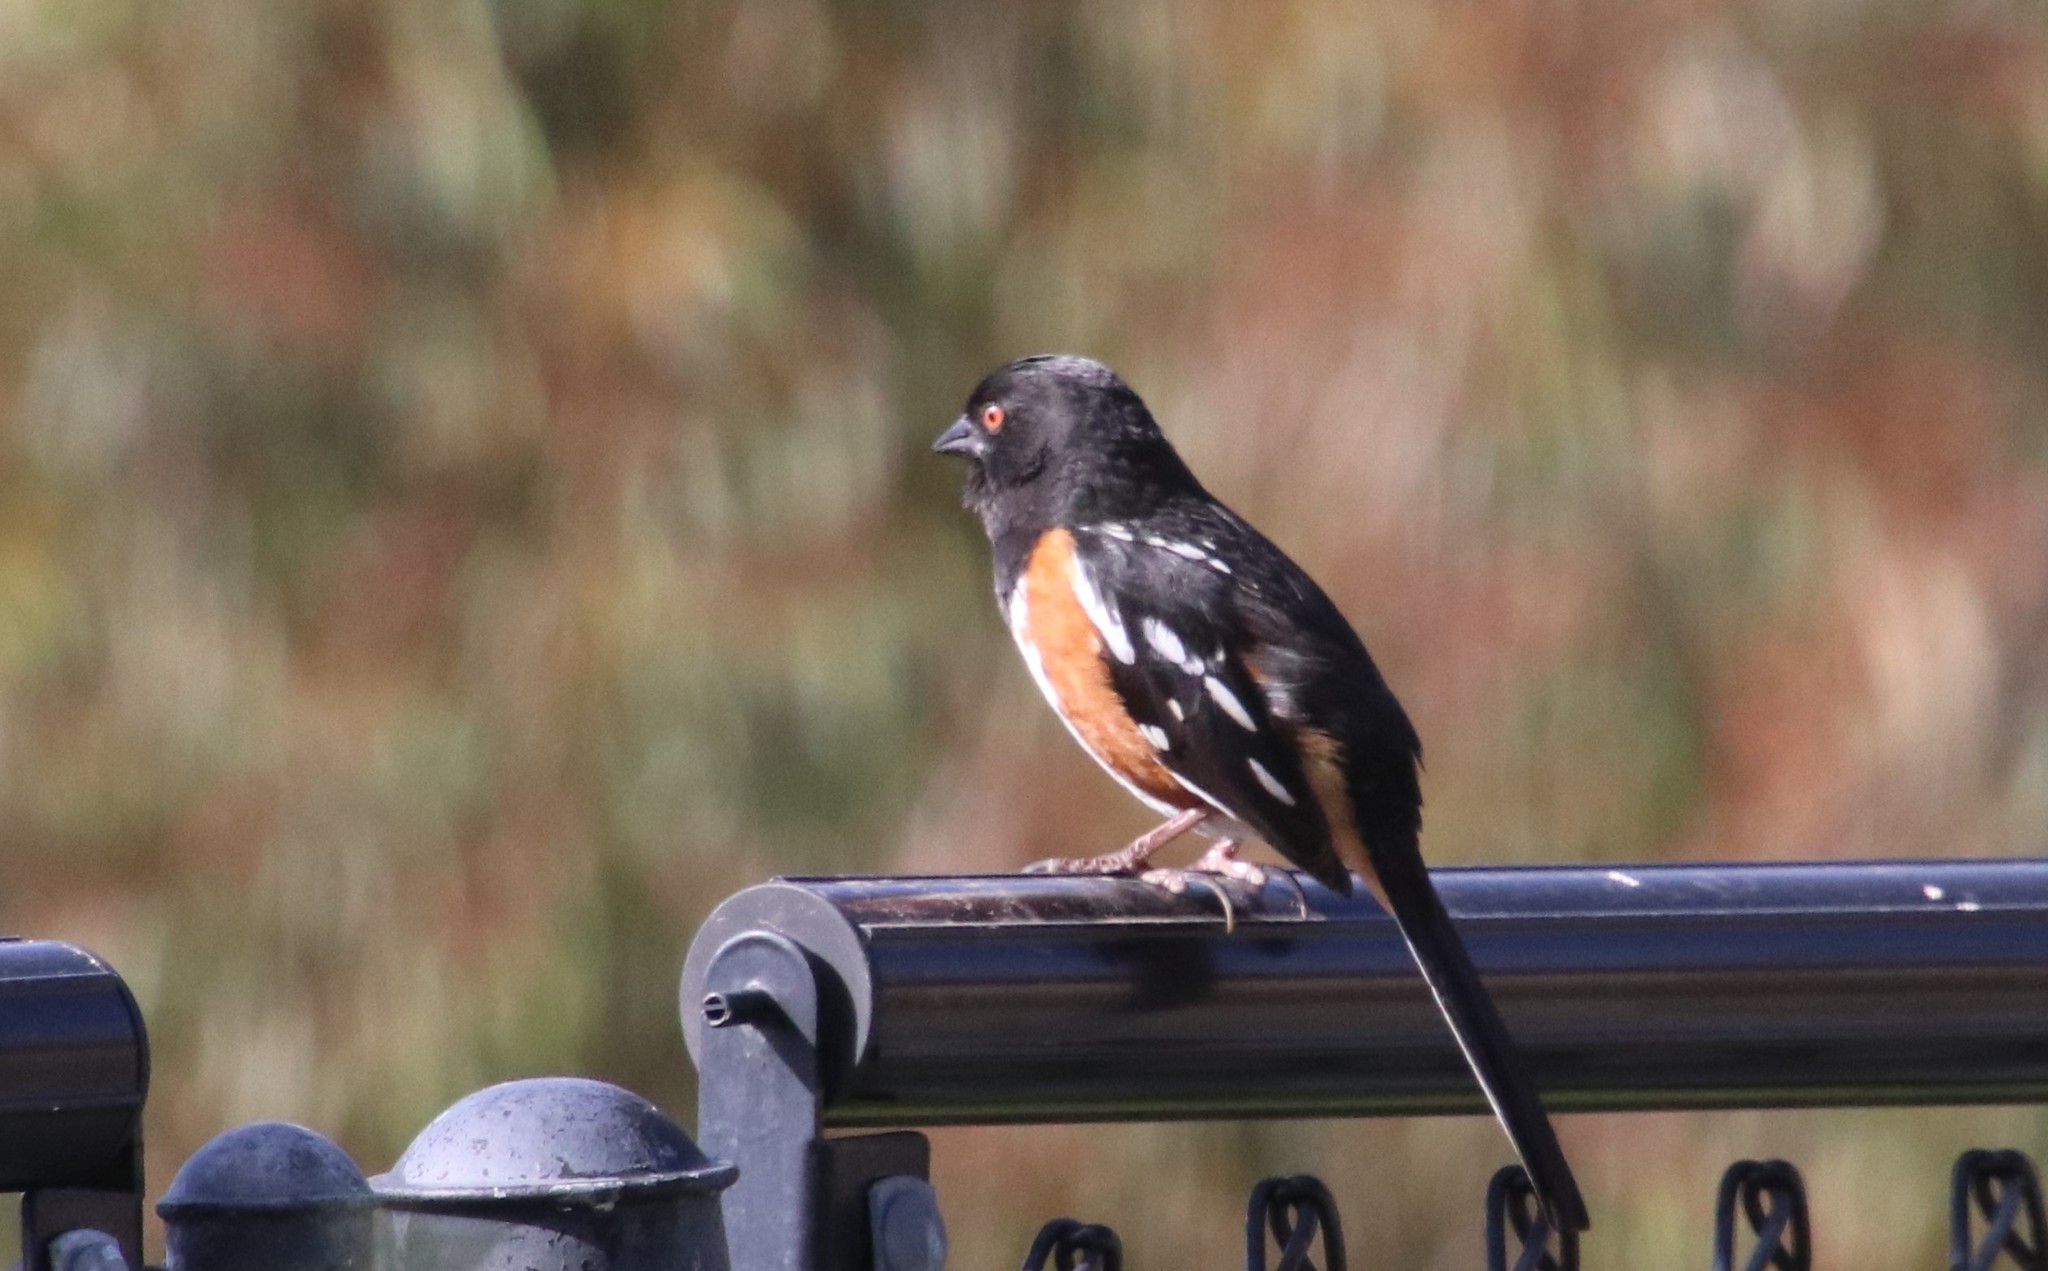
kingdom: Animalia
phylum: Chordata
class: Aves
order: Passeriformes
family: Passerellidae
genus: Pipilo
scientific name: Pipilo maculatus
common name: Spotted towhee
